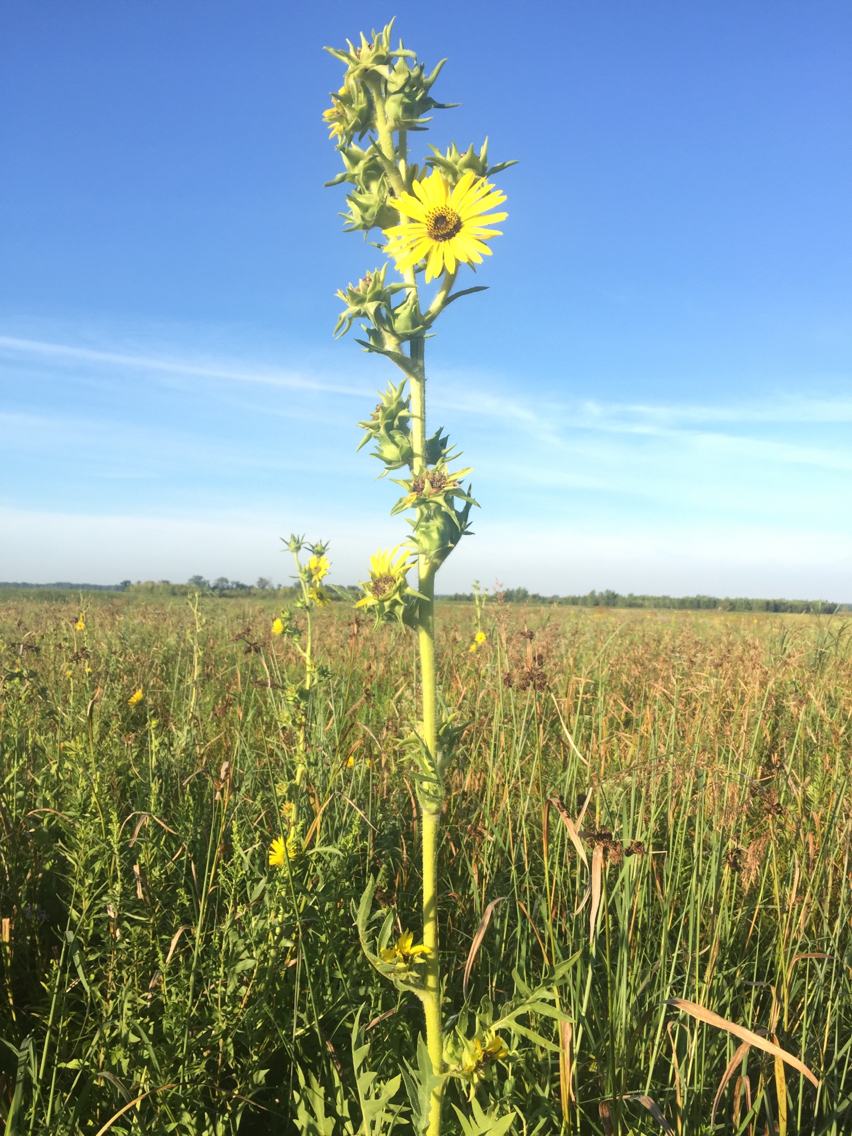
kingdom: Plantae
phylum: Tracheophyta
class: Magnoliopsida
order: Asterales
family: Asteraceae
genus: Silphium
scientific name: Silphium laciniatum
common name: Polarplant
